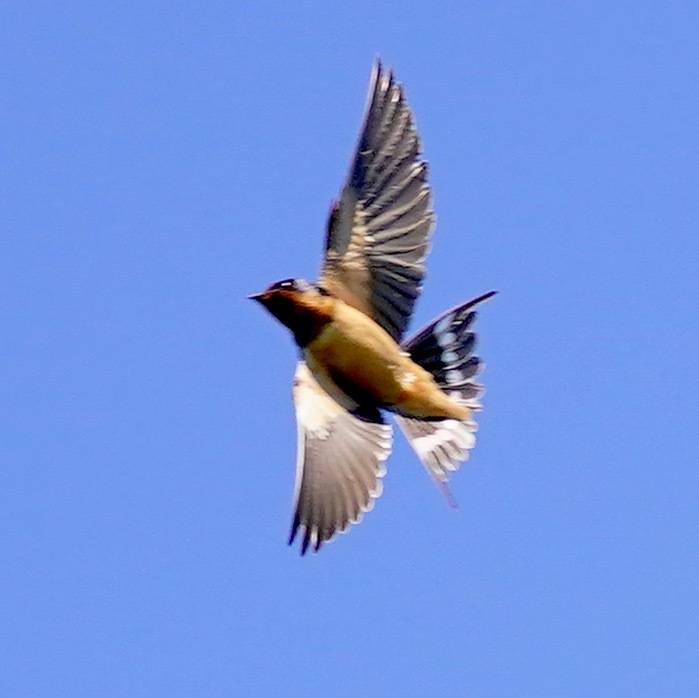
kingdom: Animalia
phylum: Chordata
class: Aves
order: Passeriformes
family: Hirundinidae
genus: Hirundo
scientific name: Hirundo rustica
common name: Barn swallow
